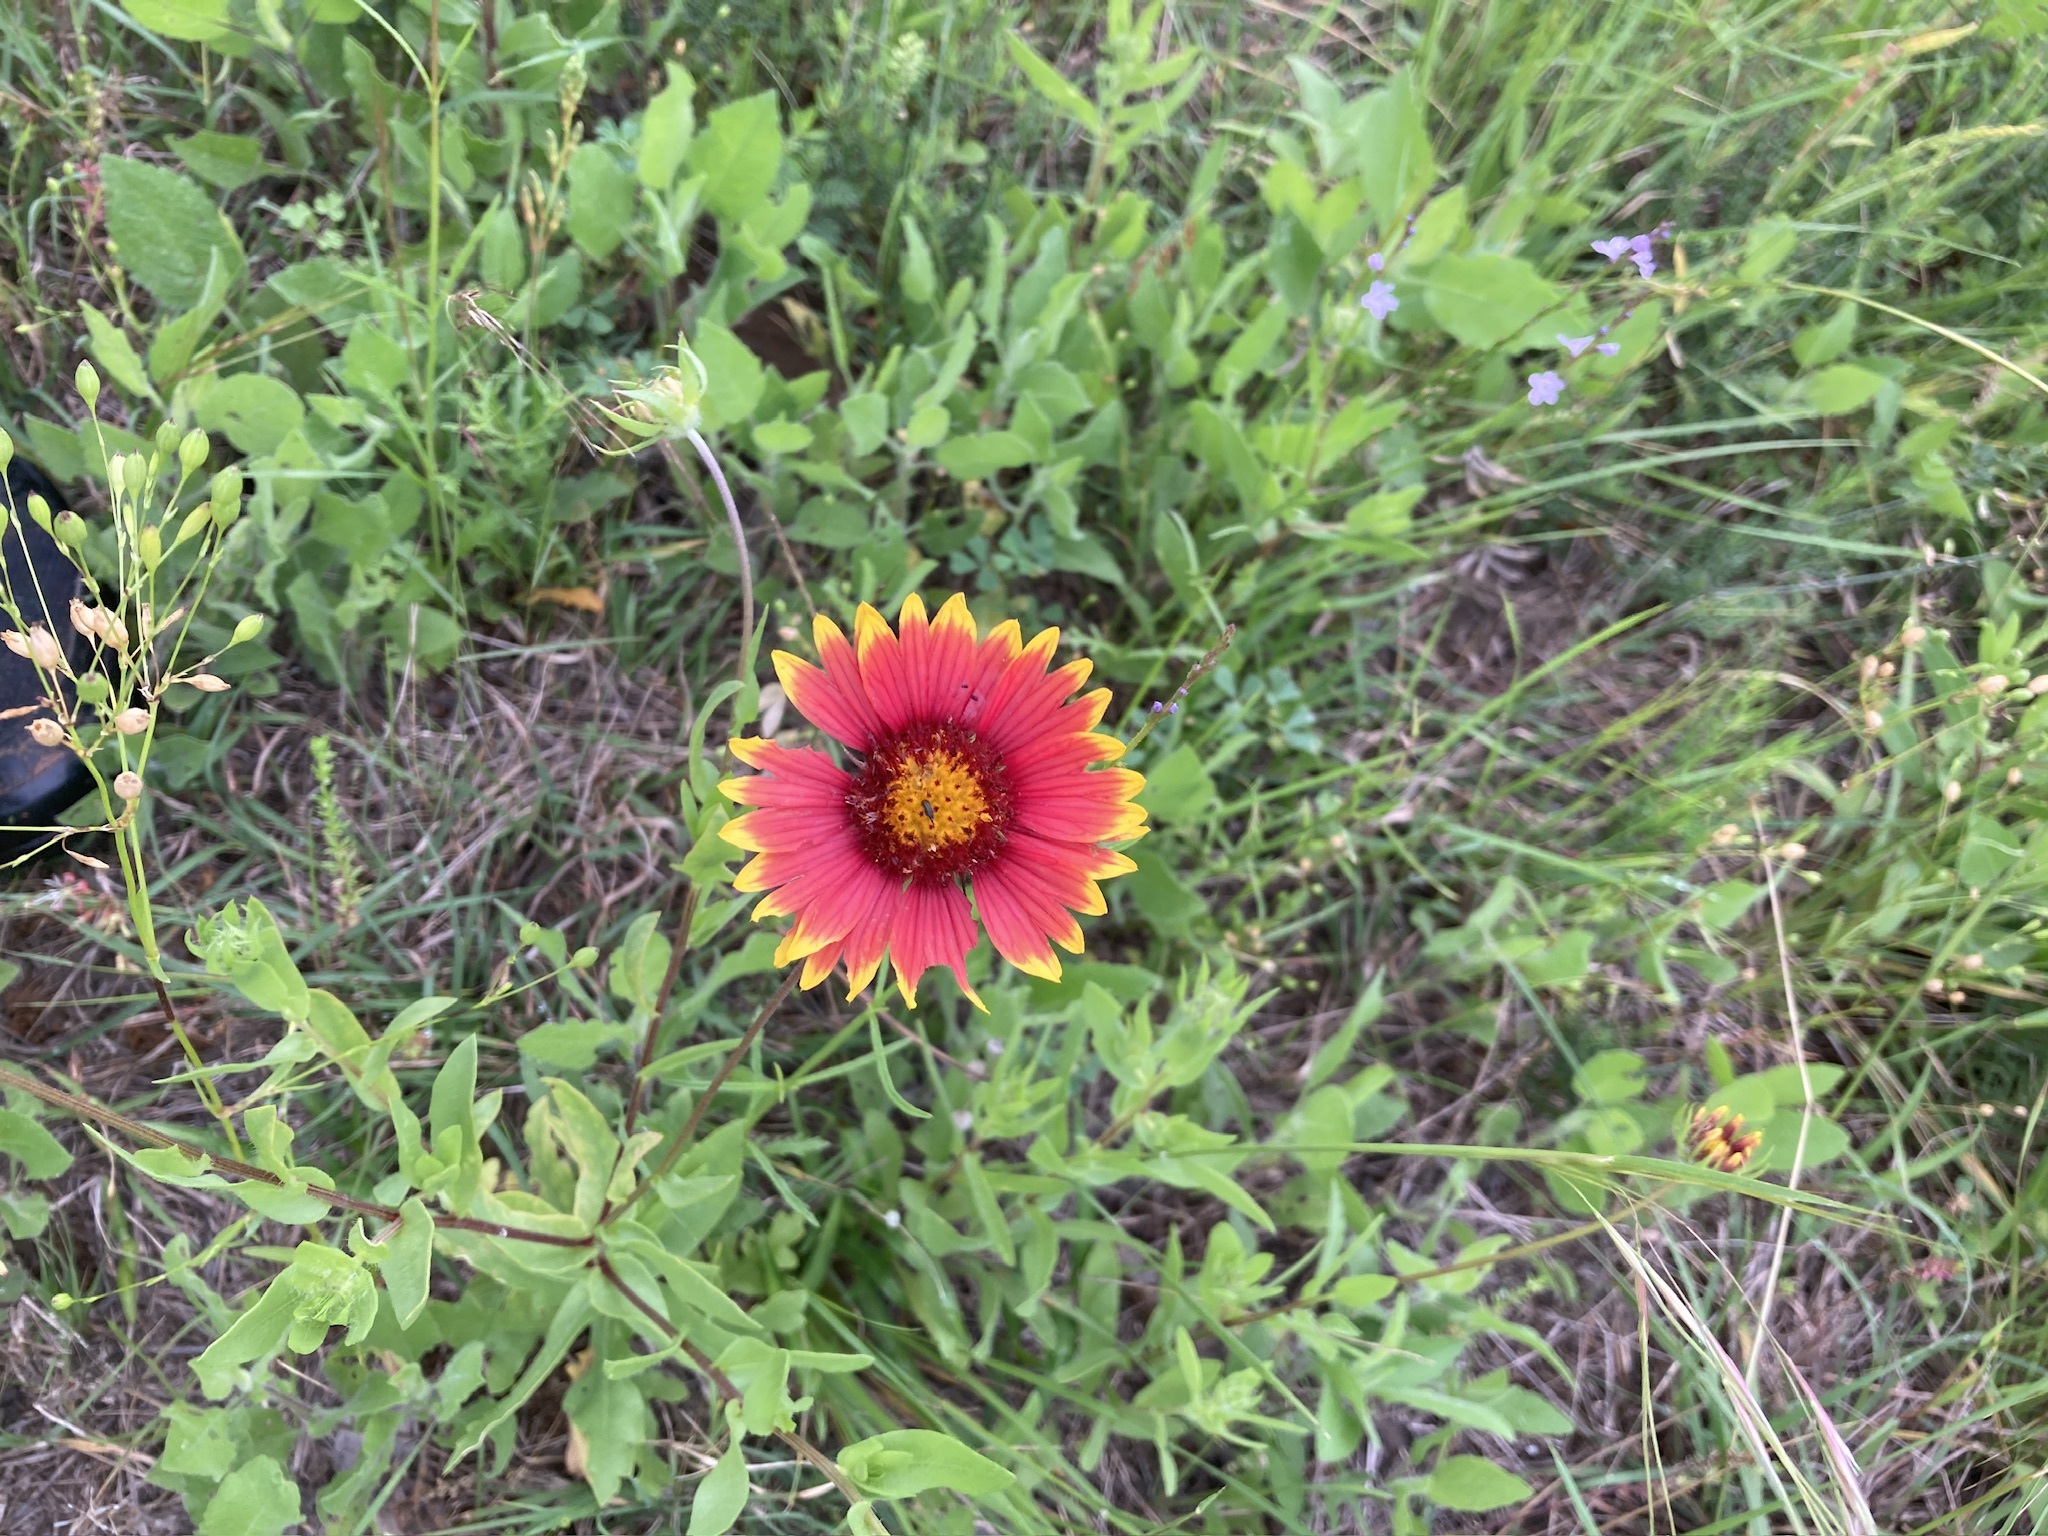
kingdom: Plantae
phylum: Tracheophyta
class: Magnoliopsida
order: Asterales
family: Asteraceae
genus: Gaillardia
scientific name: Gaillardia pulchella
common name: Firewheel
